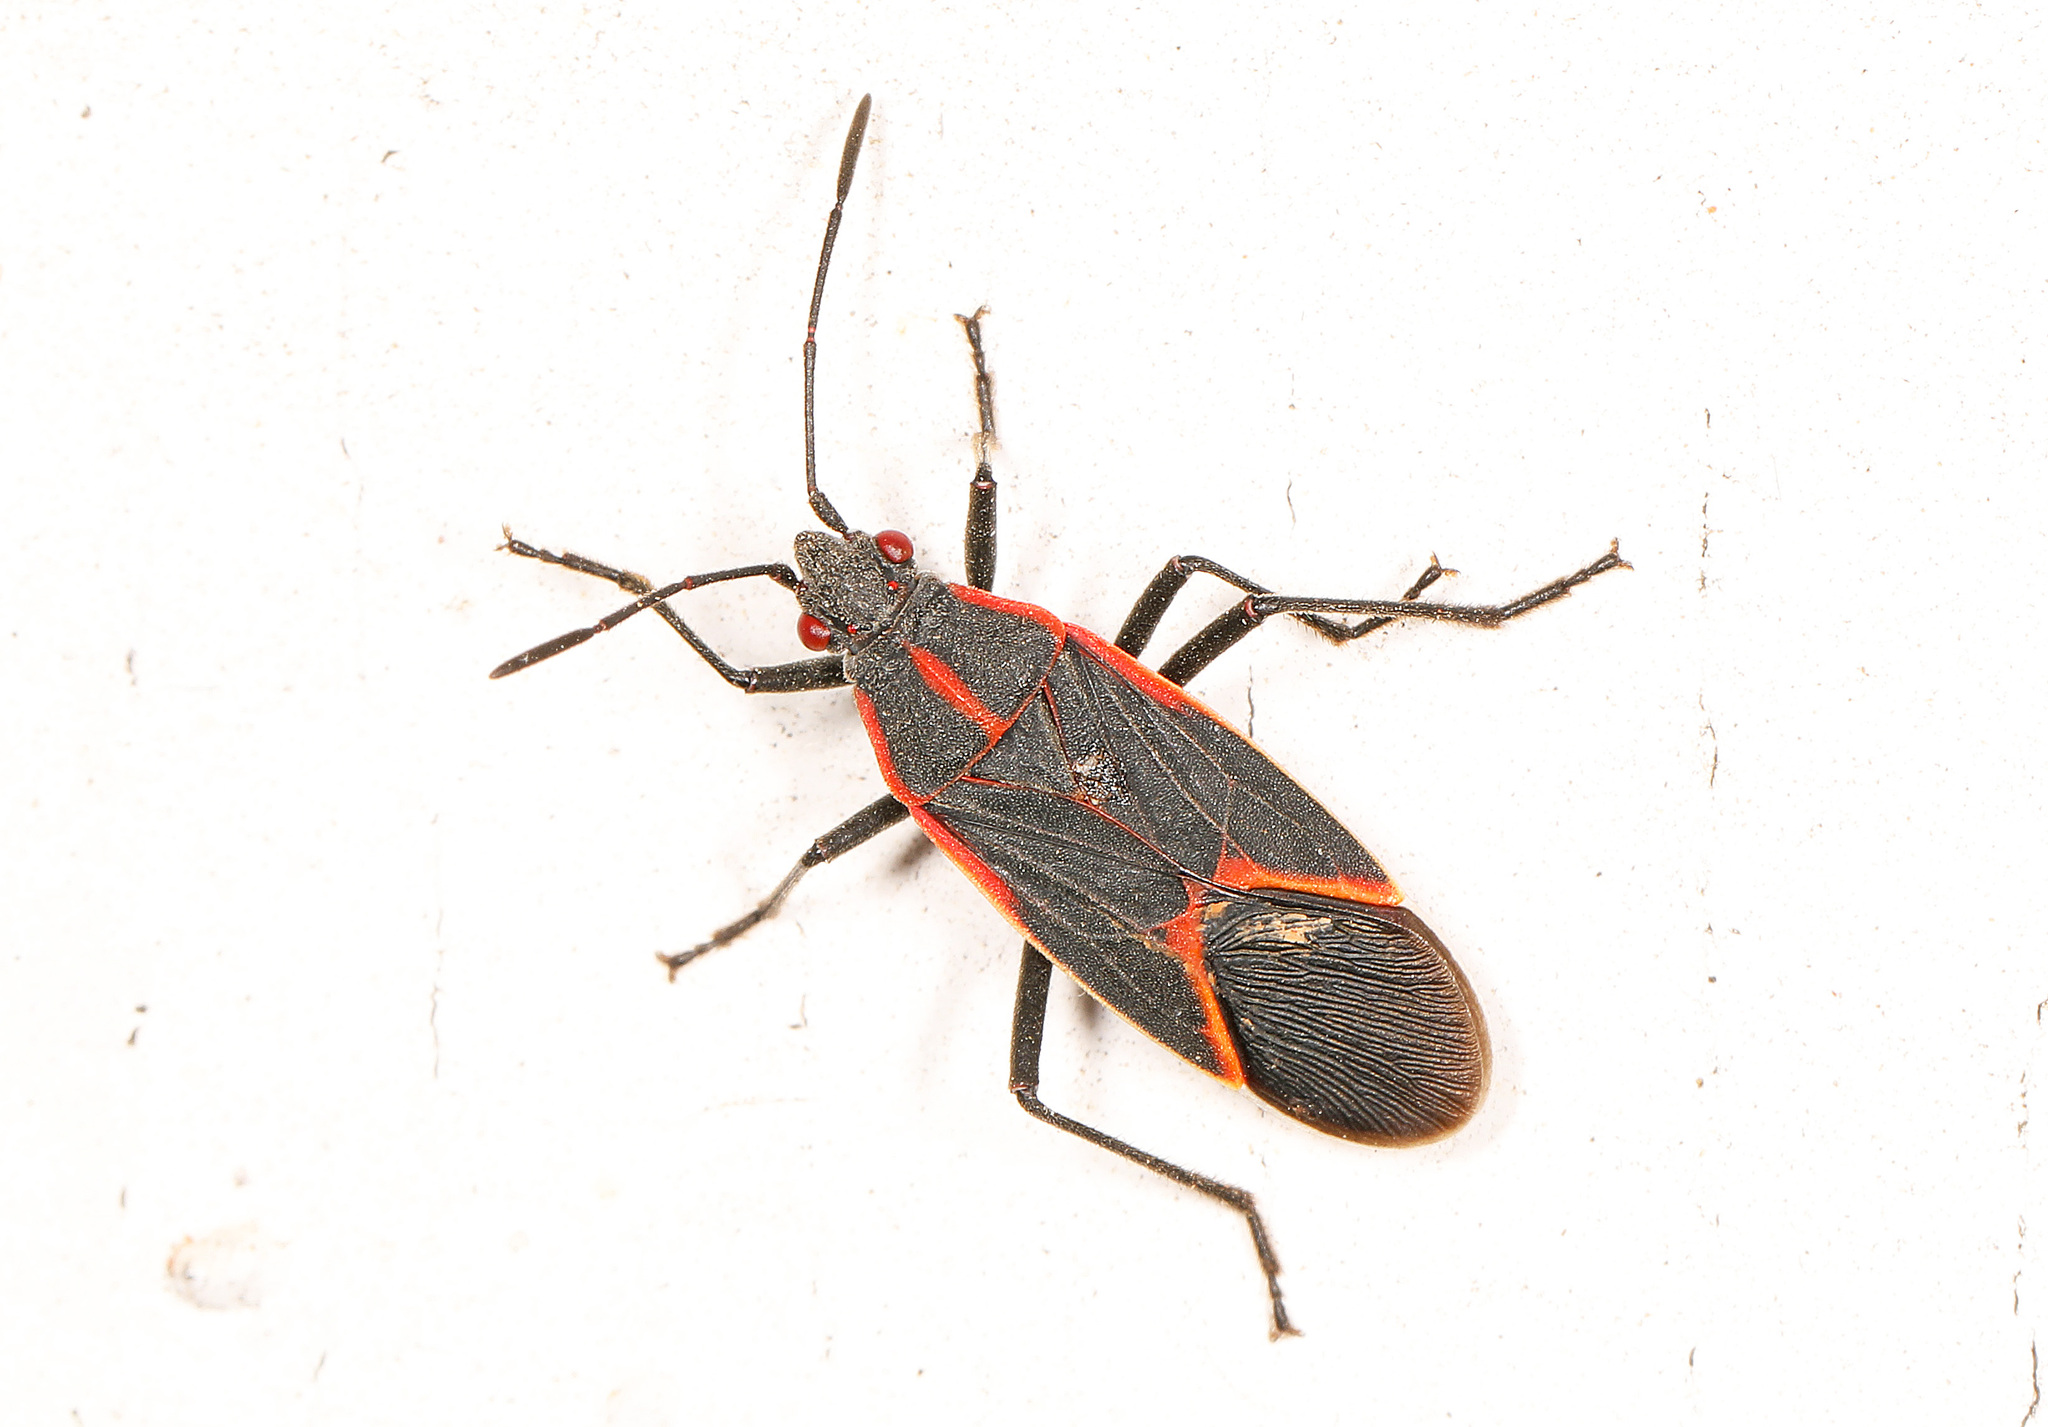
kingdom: Animalia
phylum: Arthropoda
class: Insecta
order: Hemiptera
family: Rhopalidae
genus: Boisea
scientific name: Boisea trivittata
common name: Boxelder bug
